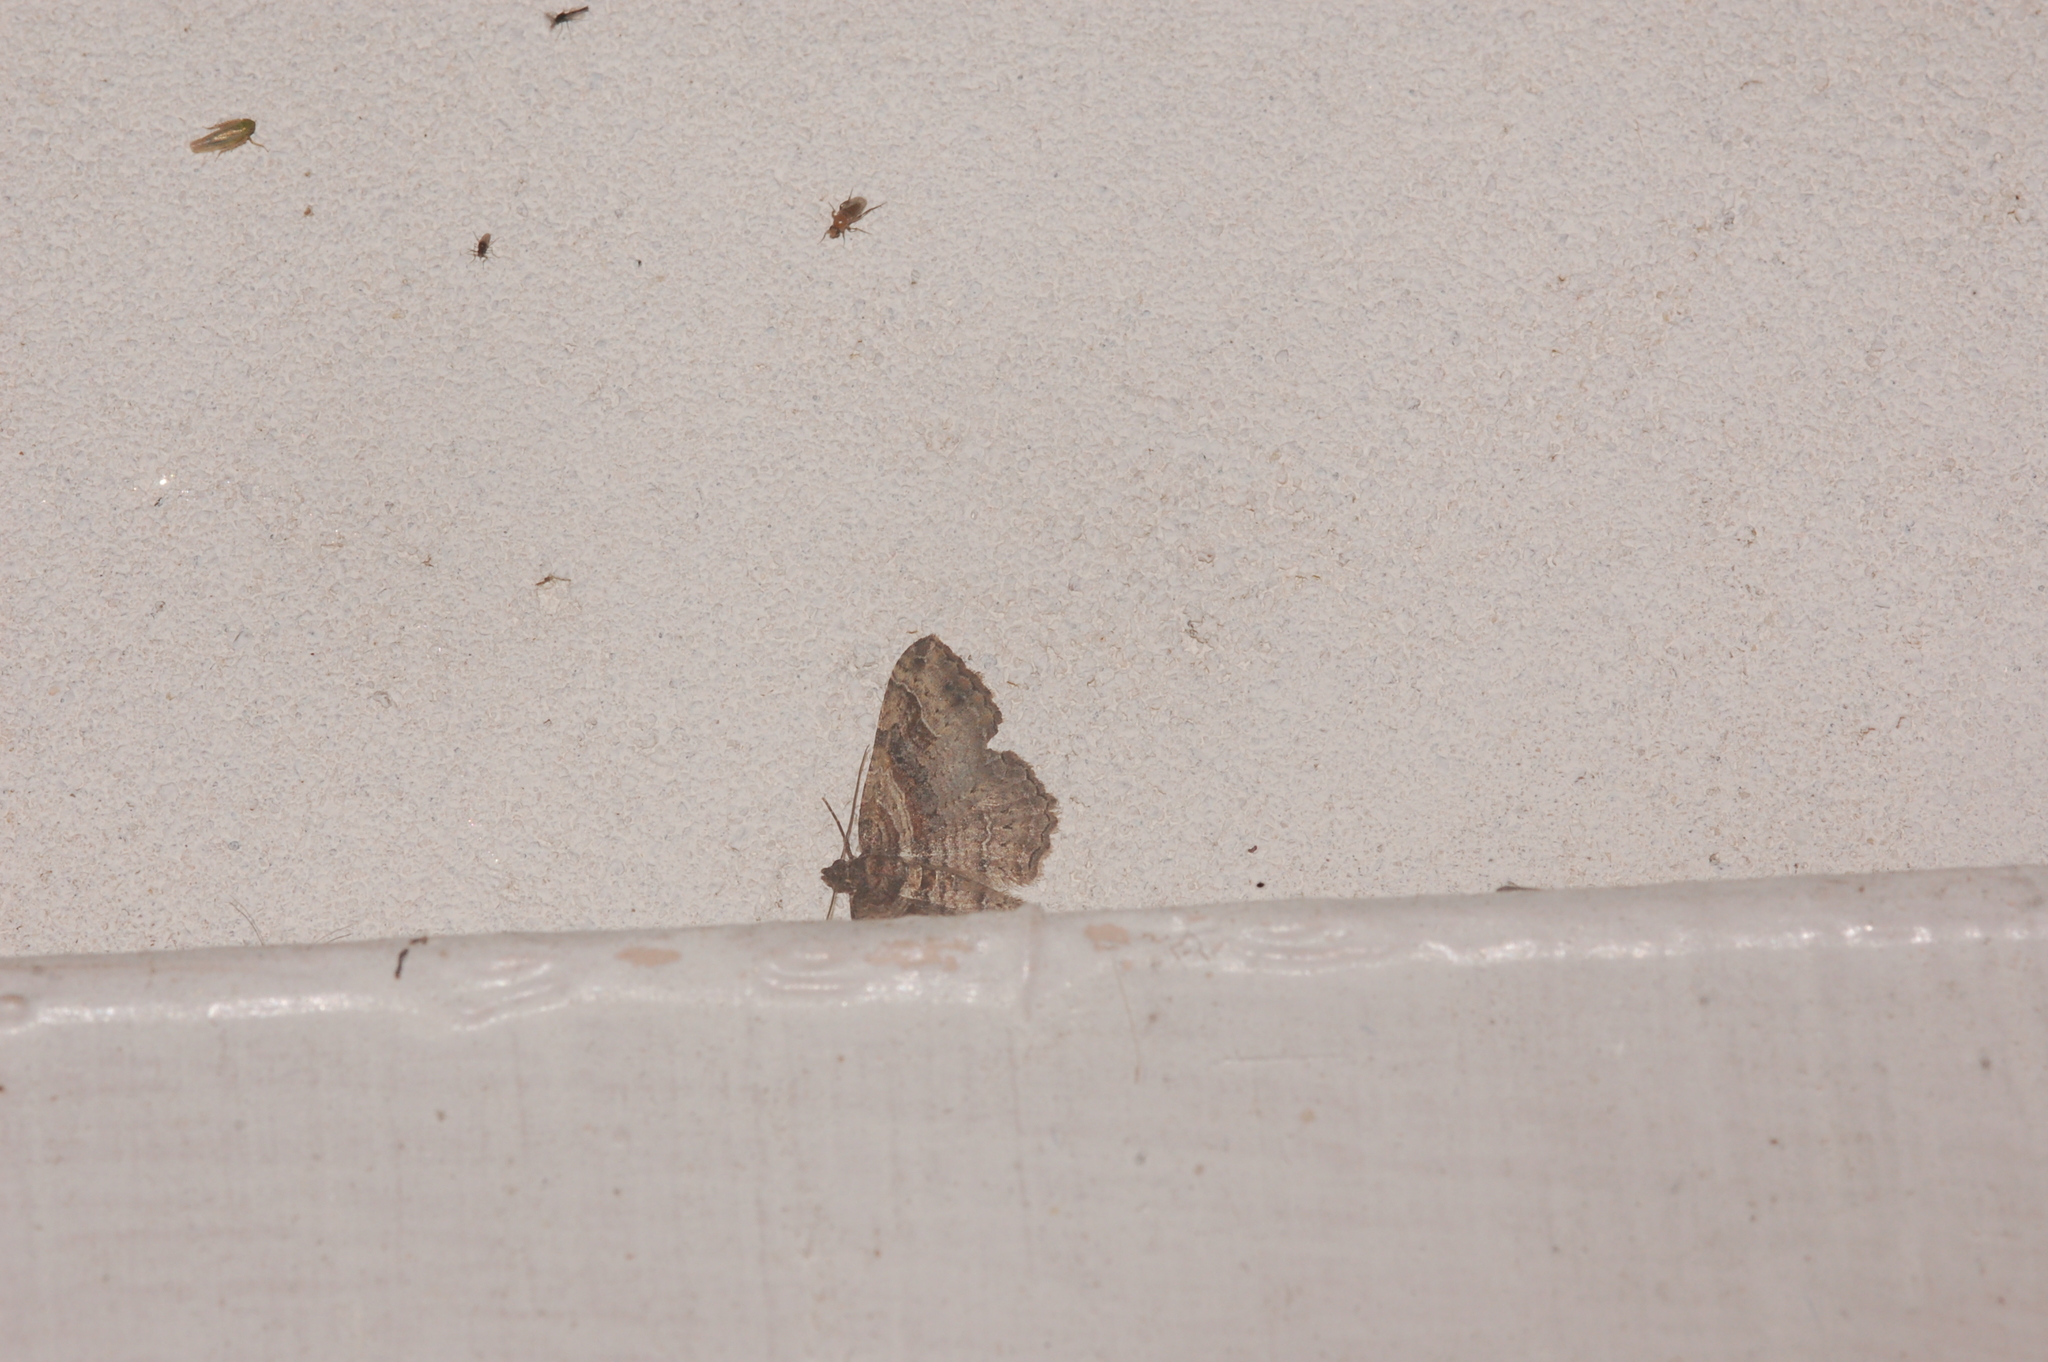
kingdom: Animalia
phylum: Arthropoda
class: Insecta
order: Lepidoptera
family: Geometridae
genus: Costaconvexa
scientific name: Costaconvexa centrostrigaria
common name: Bent-line carpet
